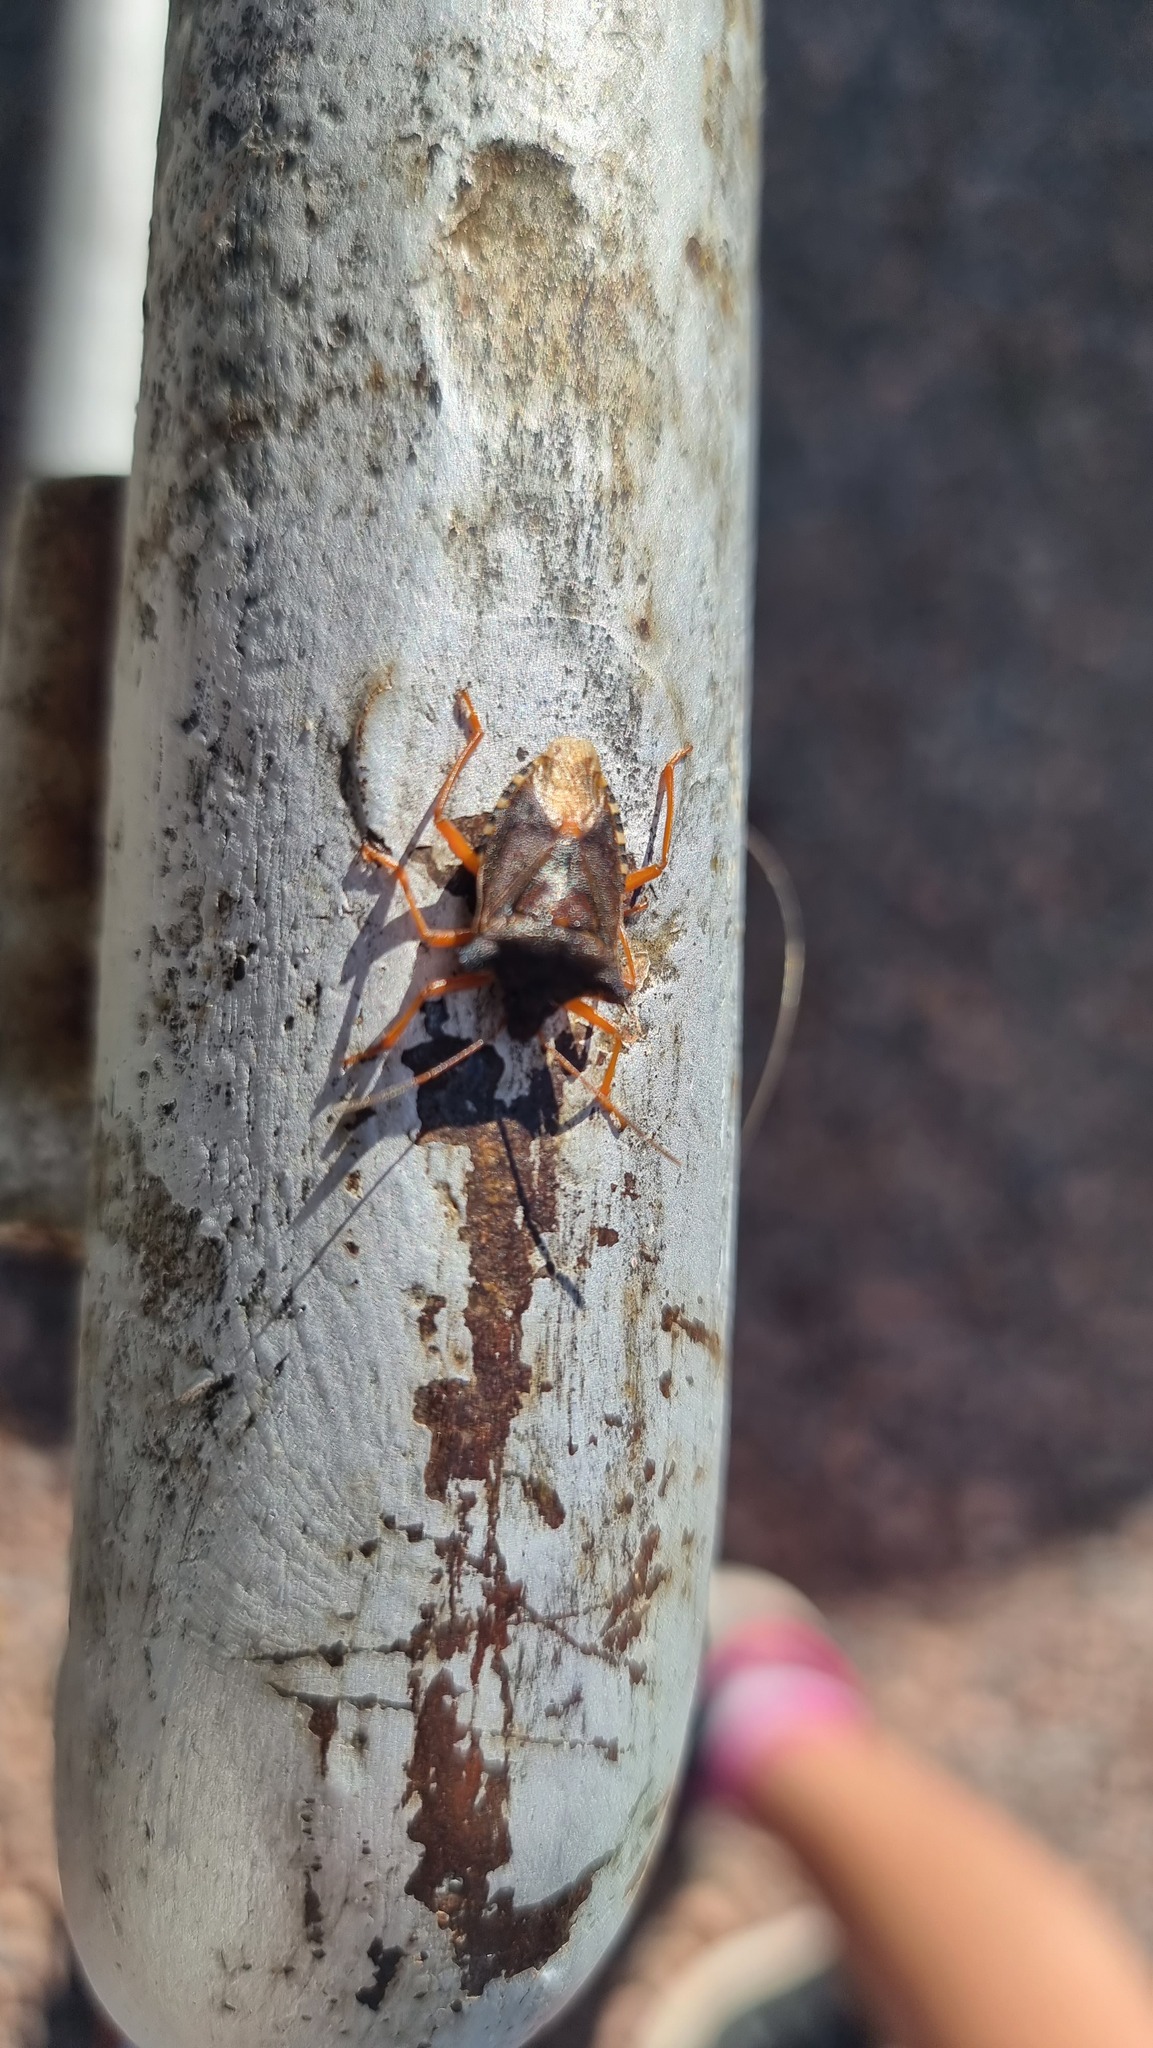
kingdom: Animalia
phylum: Arthropoda
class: Insecta
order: Hemiptera
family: Pentatomidae
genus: Pentatoma
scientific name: Pentatoma rufipes
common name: Forest bug
